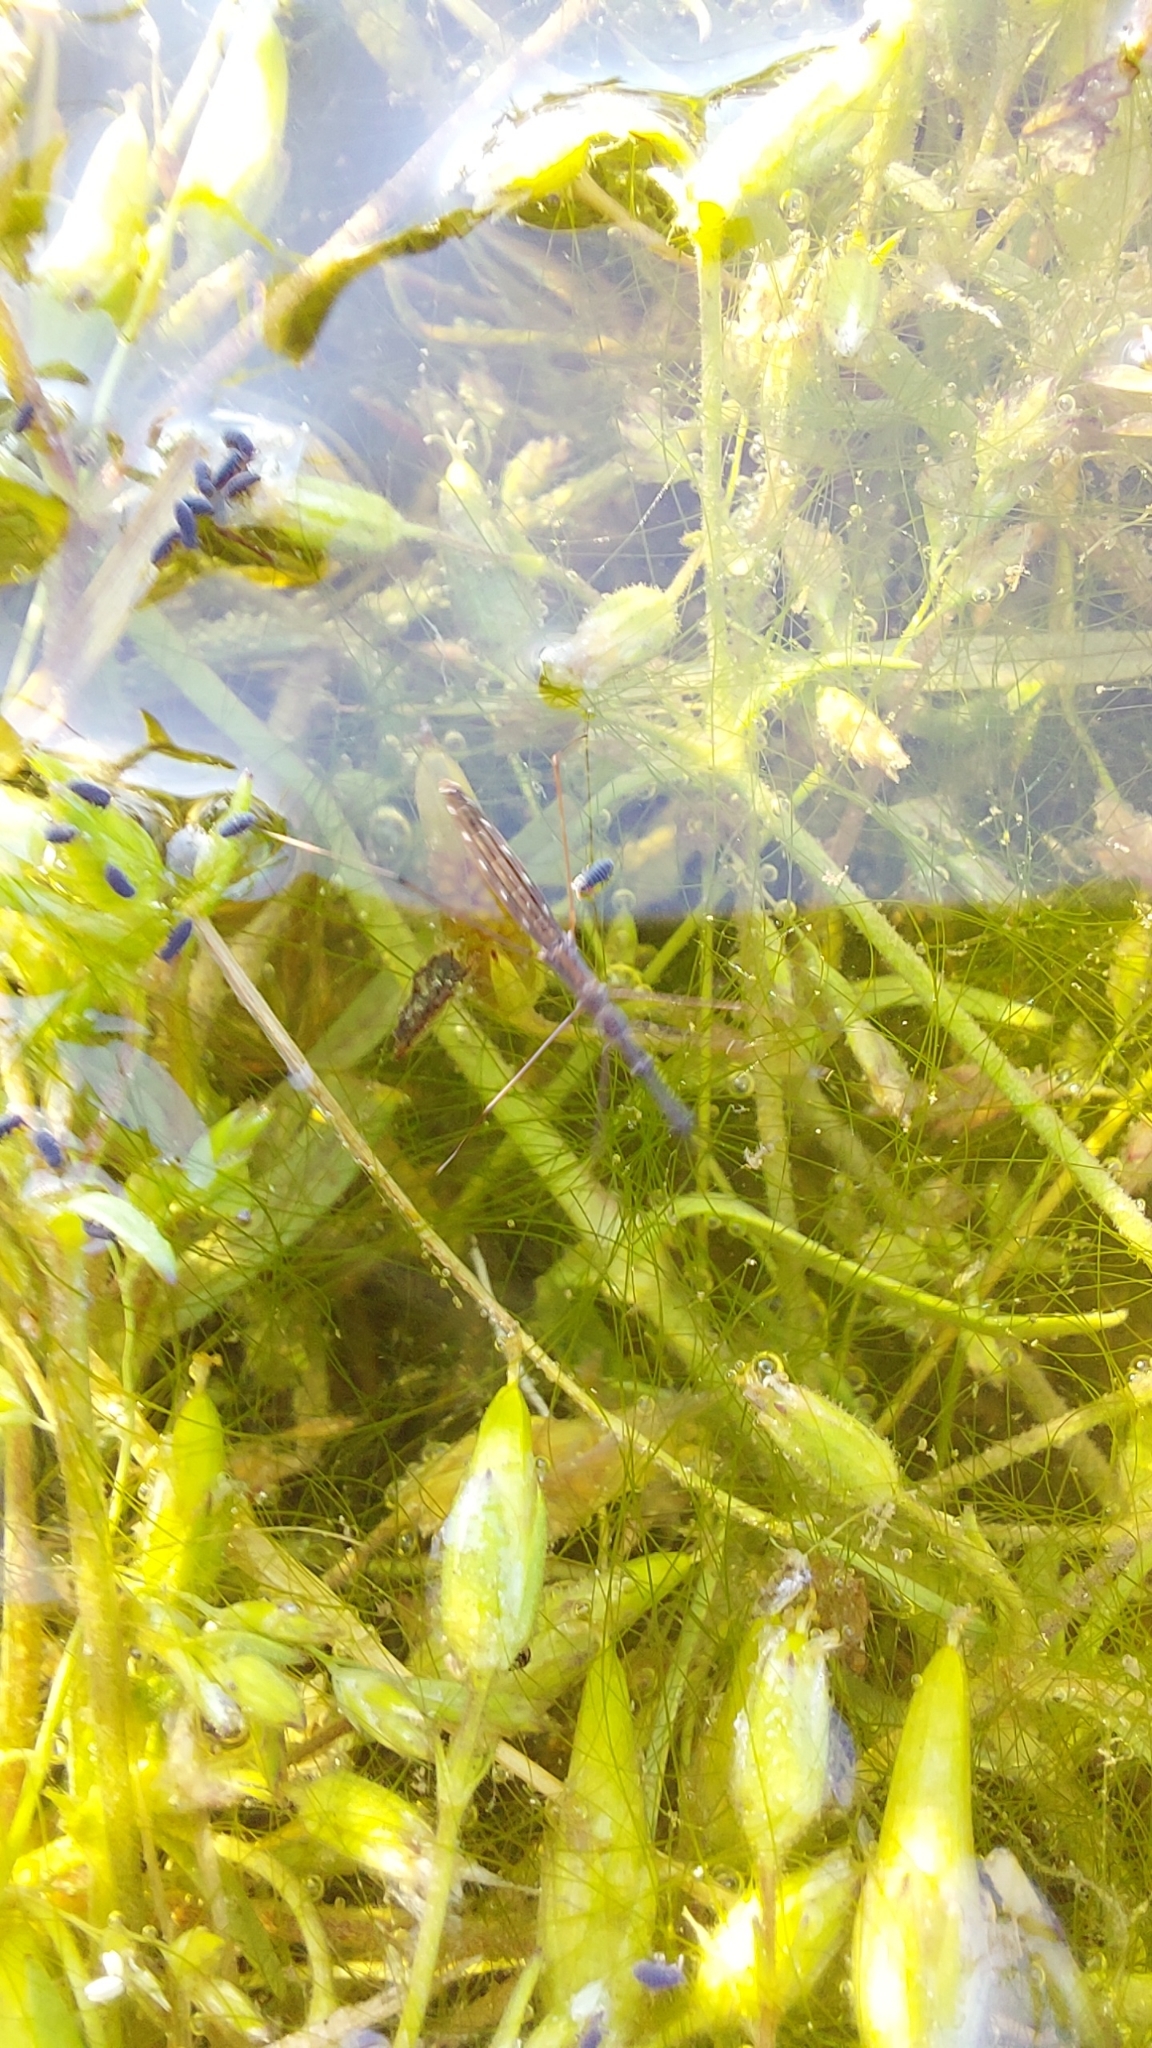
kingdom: Animalia
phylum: Arthropoda
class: Insecta
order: Hemiptera
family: Hydrometridae
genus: Hydrometra
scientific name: Hydrometra stagnorum
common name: Water measurer
